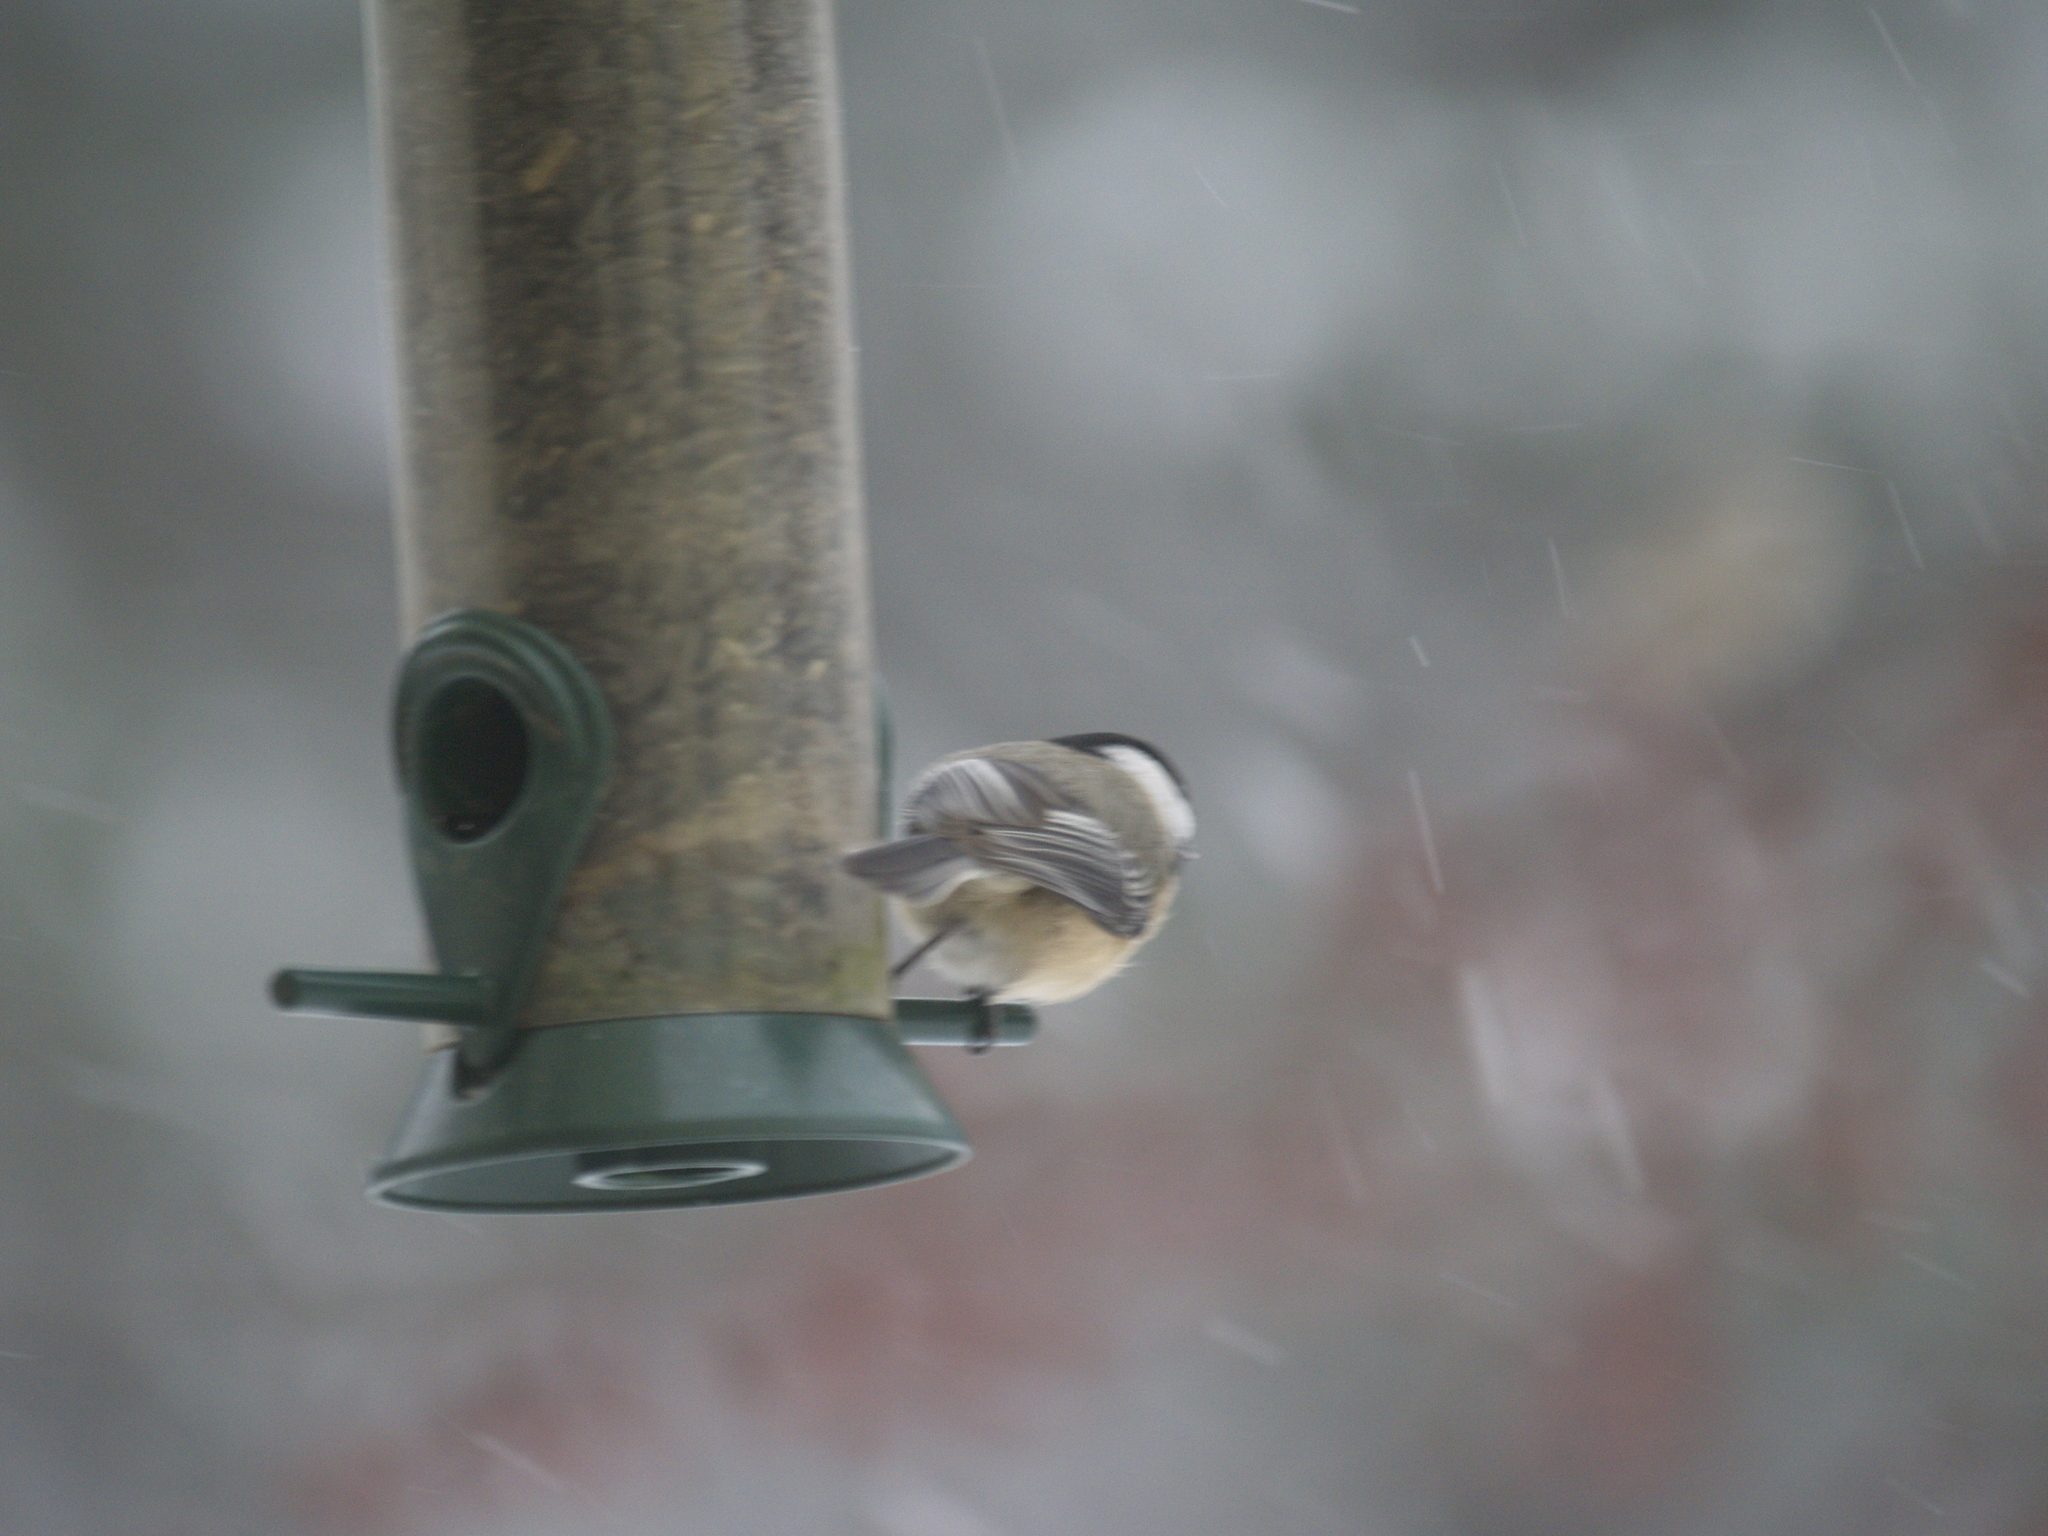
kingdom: Animalia
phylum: Chordata
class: Aves
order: Passeriformes
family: Paridae
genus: Poecile
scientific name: Poecile atricapillus
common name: Black-capped chickadee
